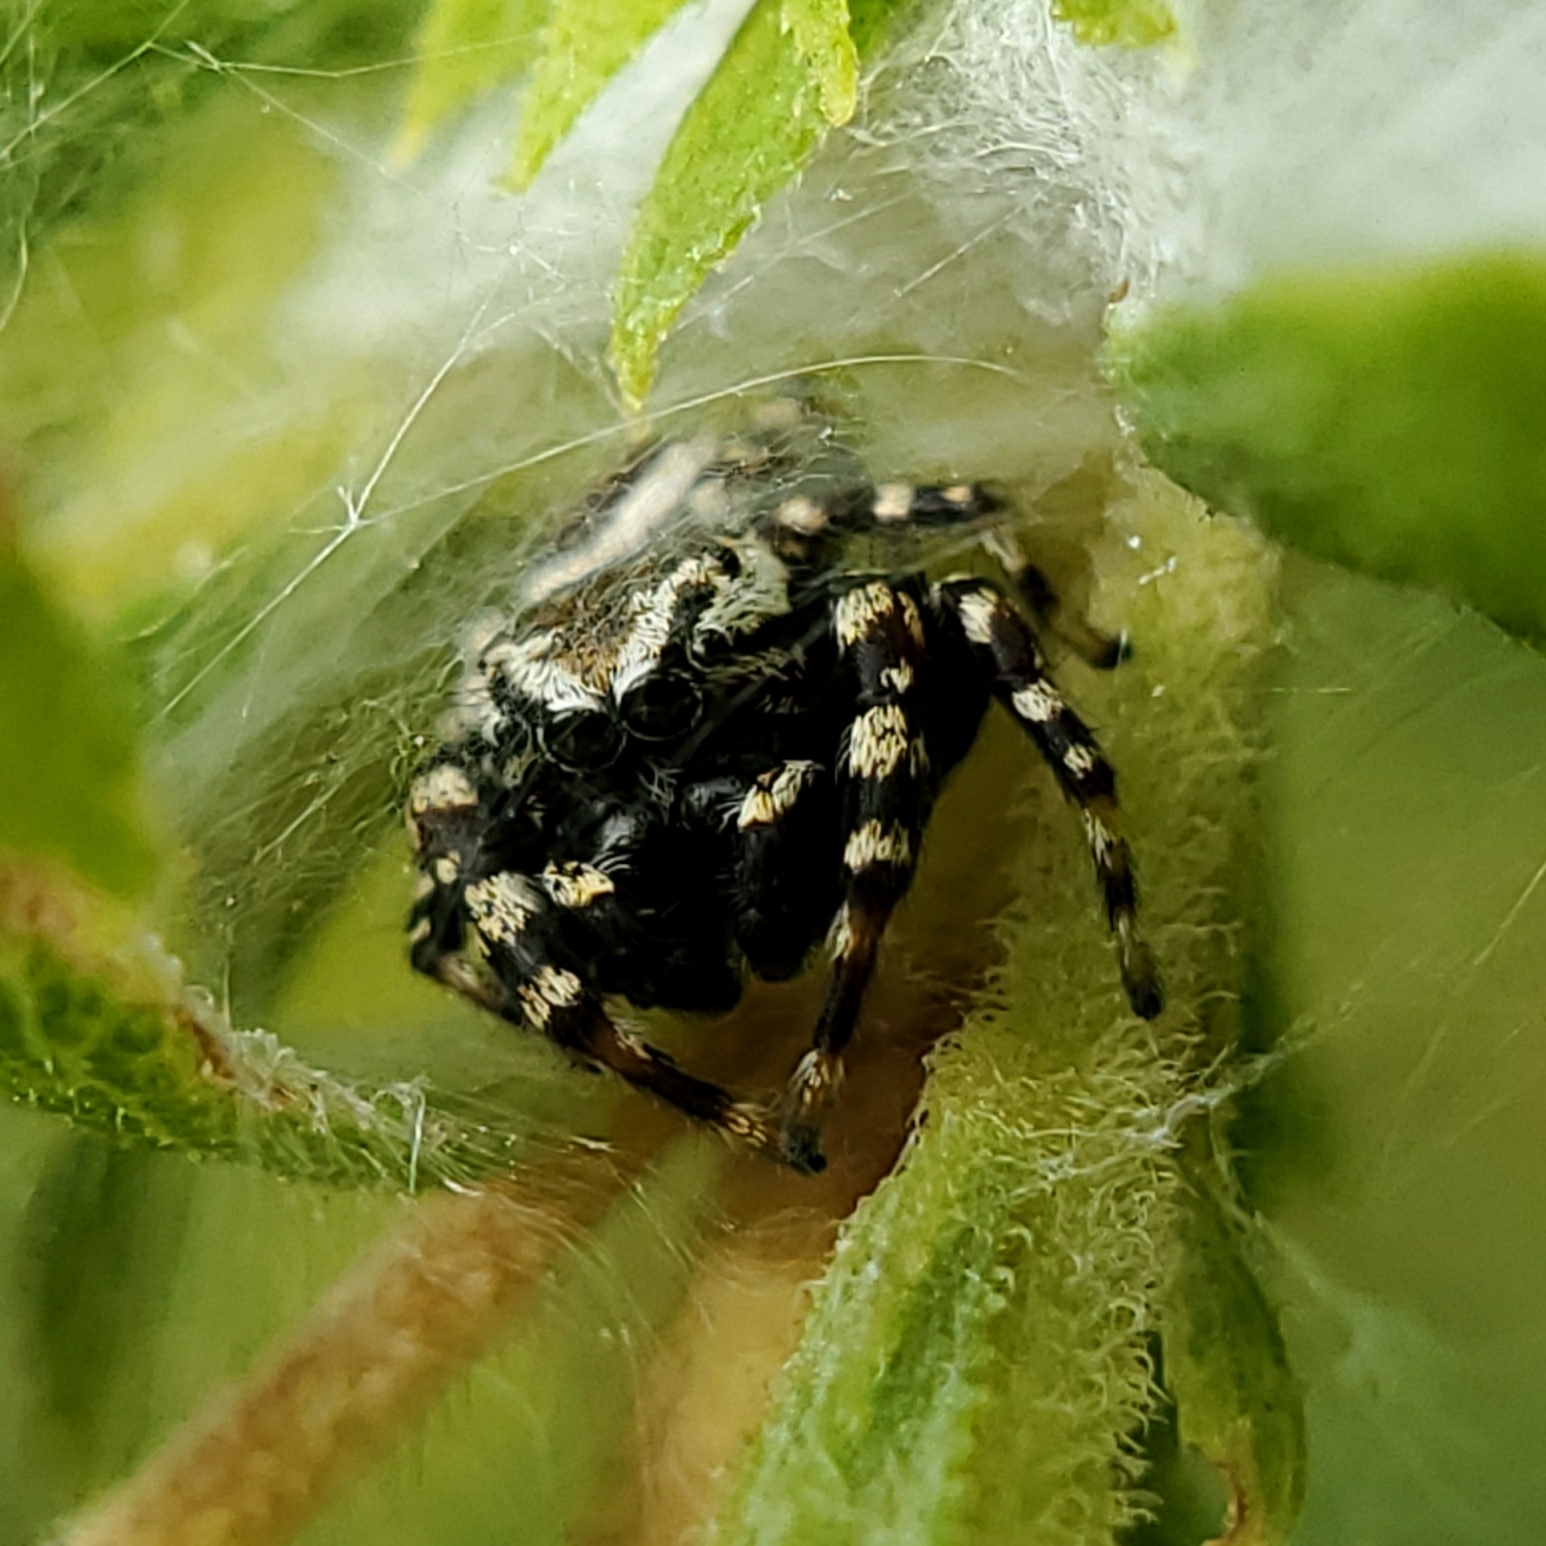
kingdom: Animalia
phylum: Arthropoda
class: Arachnida
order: Araneae
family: Salticidae
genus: Pelegrina
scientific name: Pelegrina galathea
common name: Jumping spiders
